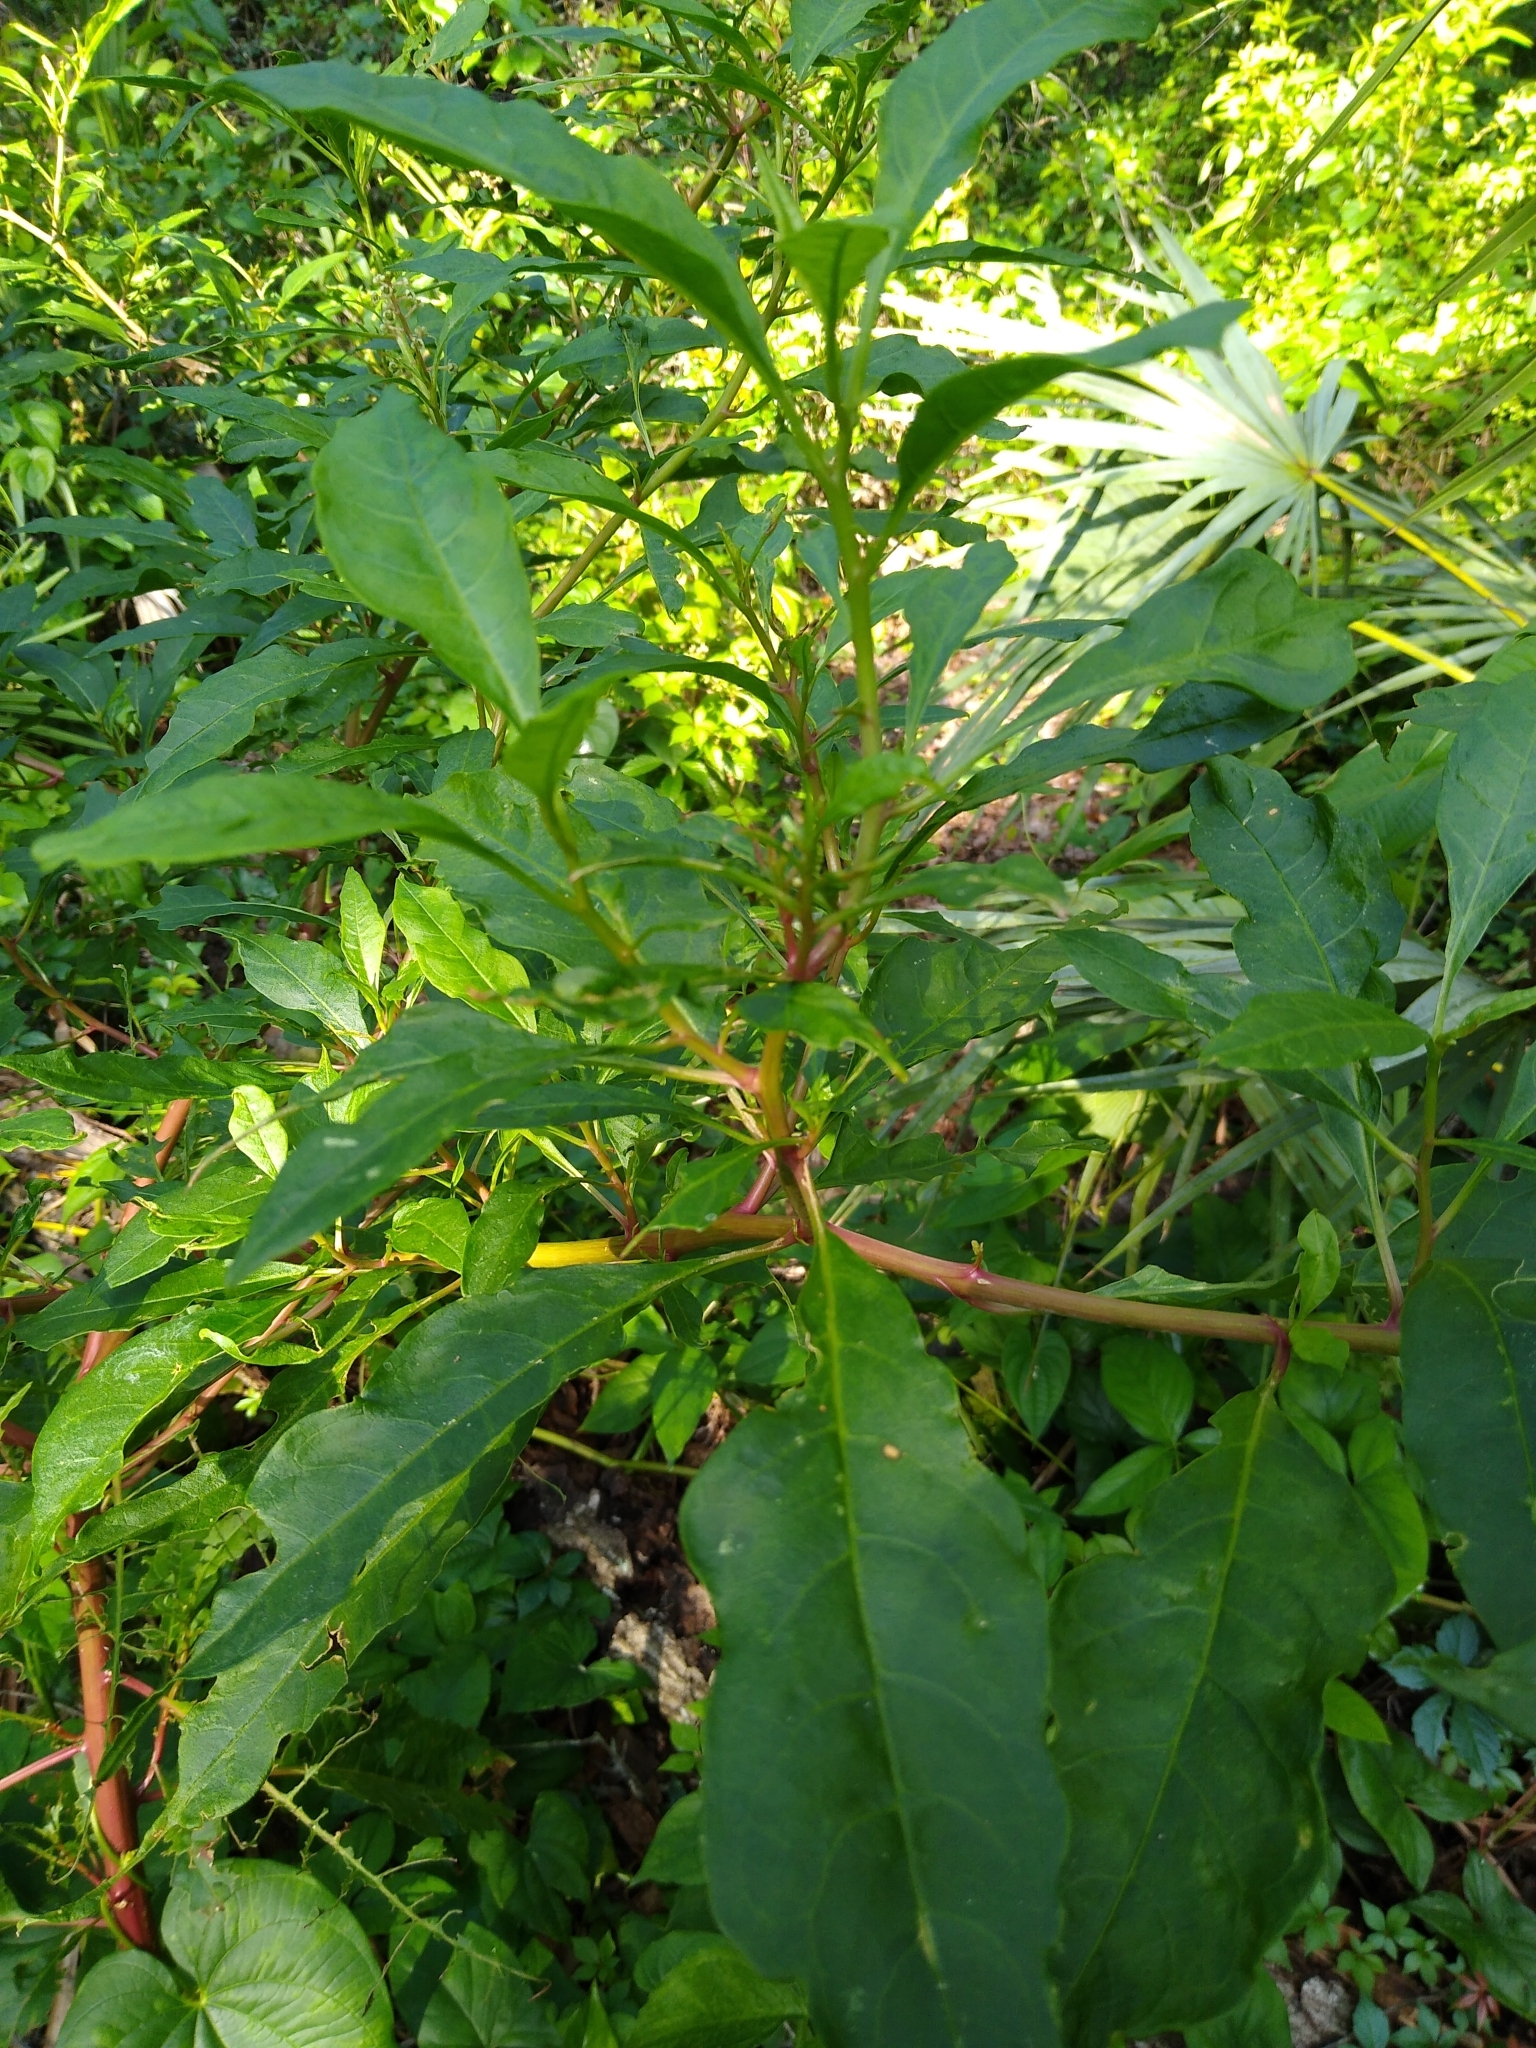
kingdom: Plantae
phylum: Tracheophyta
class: Magnoliopsida
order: Caryophyllales
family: Phytolaccaceae
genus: Phytolacca
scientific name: Phytolacca americana
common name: American pokeweed
